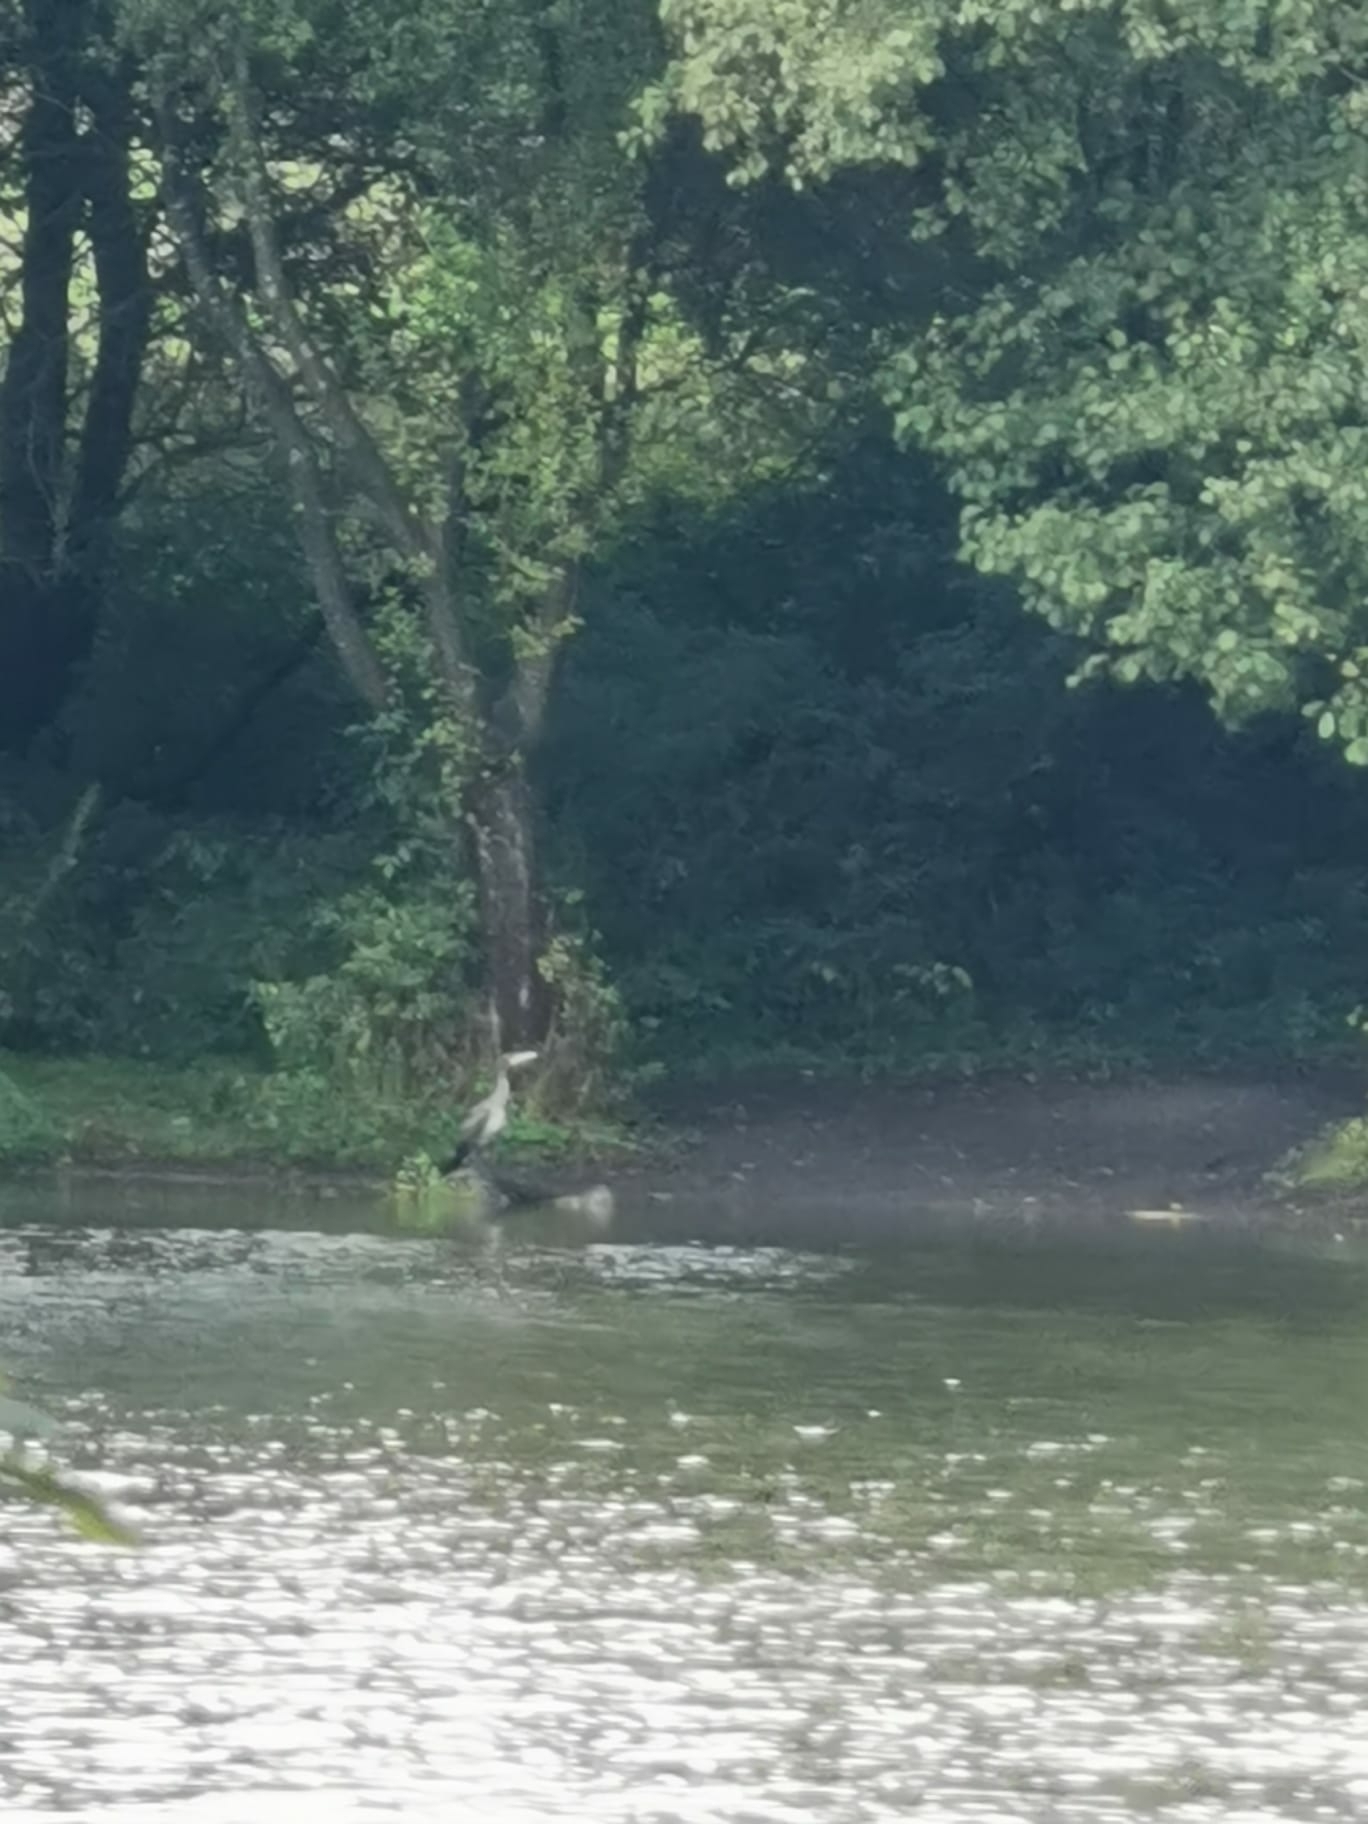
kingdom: Animalia
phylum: Chordata
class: Aves
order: Suliformes
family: Phalacrocoracidae
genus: Phalacrocorax
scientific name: Phalacrocorax carbo
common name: Great cormorant
